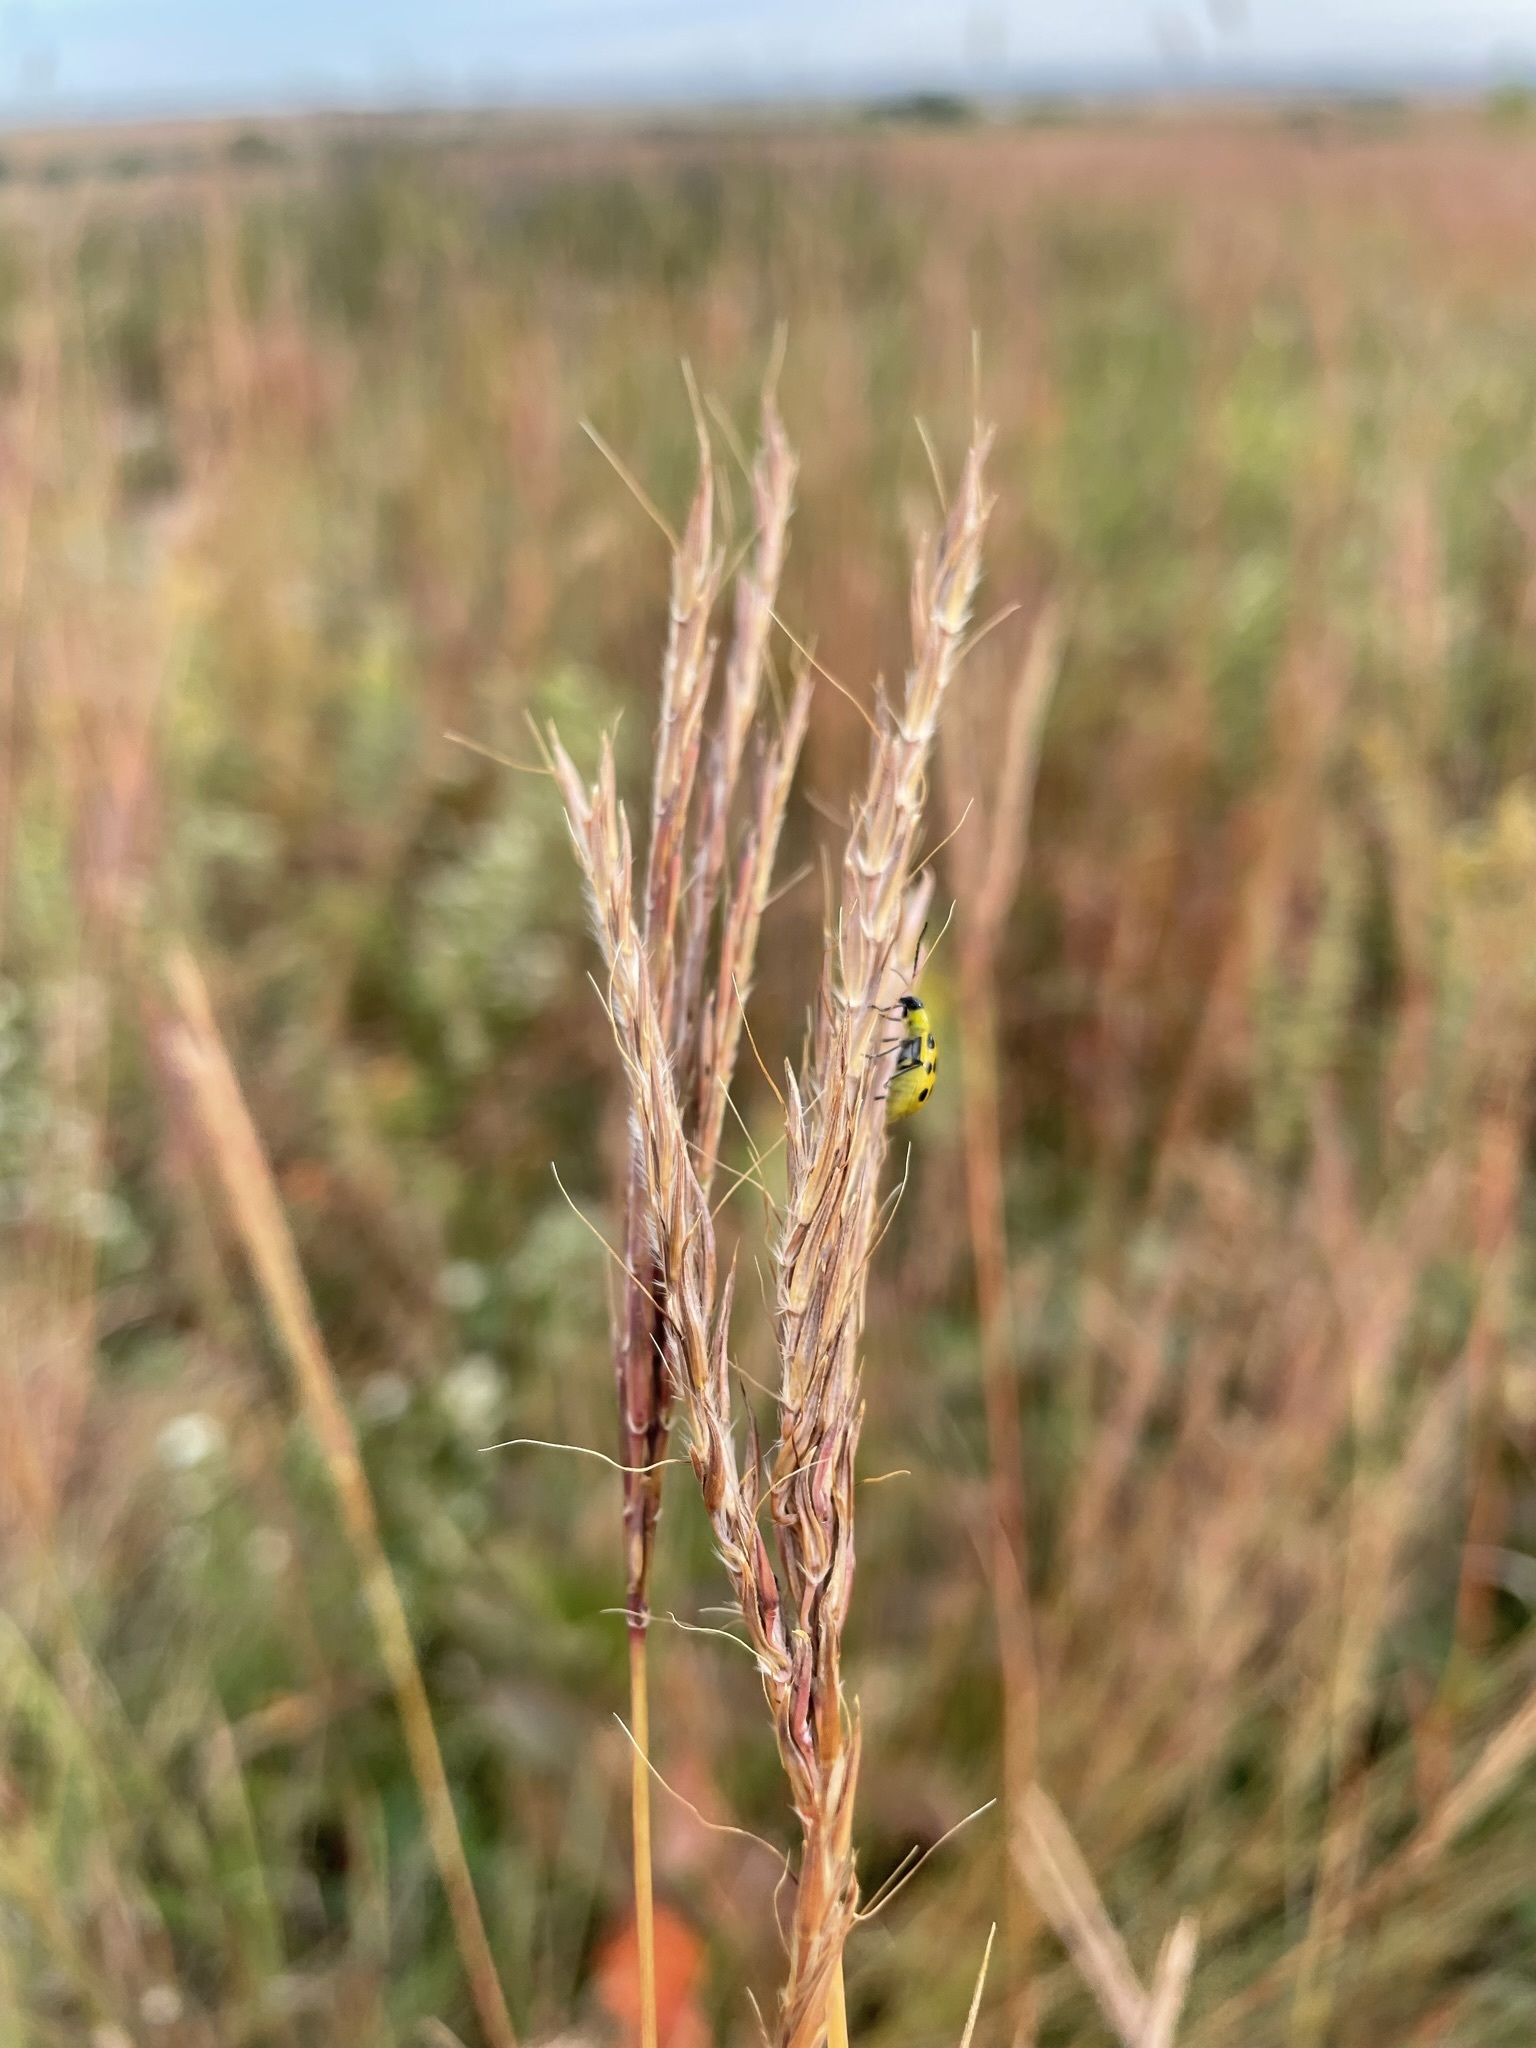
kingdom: Plantae
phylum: Tracheophyta
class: Liliopsida
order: Poales
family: Poaceae
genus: Andropogon
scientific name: Andropogon gerardi
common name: Big bluestem
